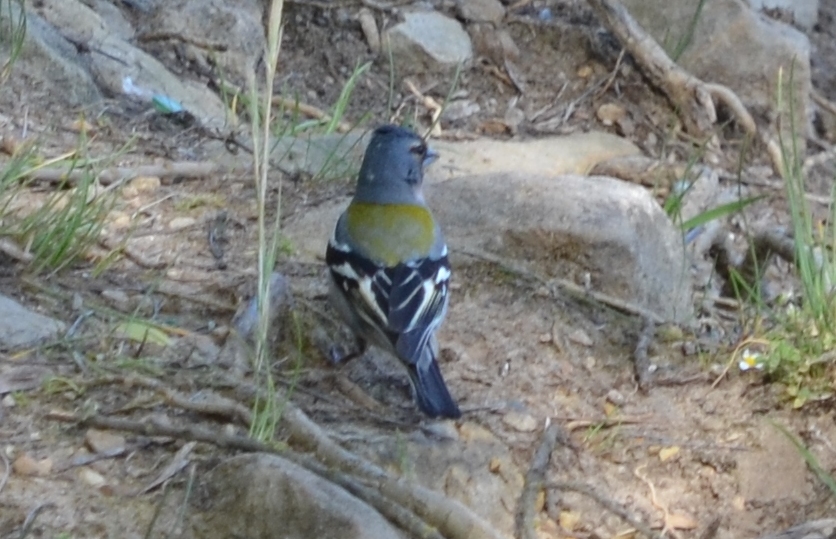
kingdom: Animalia
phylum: Chordata
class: Aves
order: Passeriformes
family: Fringillidae
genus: Fringilla
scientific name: Fringilla spodiogenys
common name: African chaffinch
